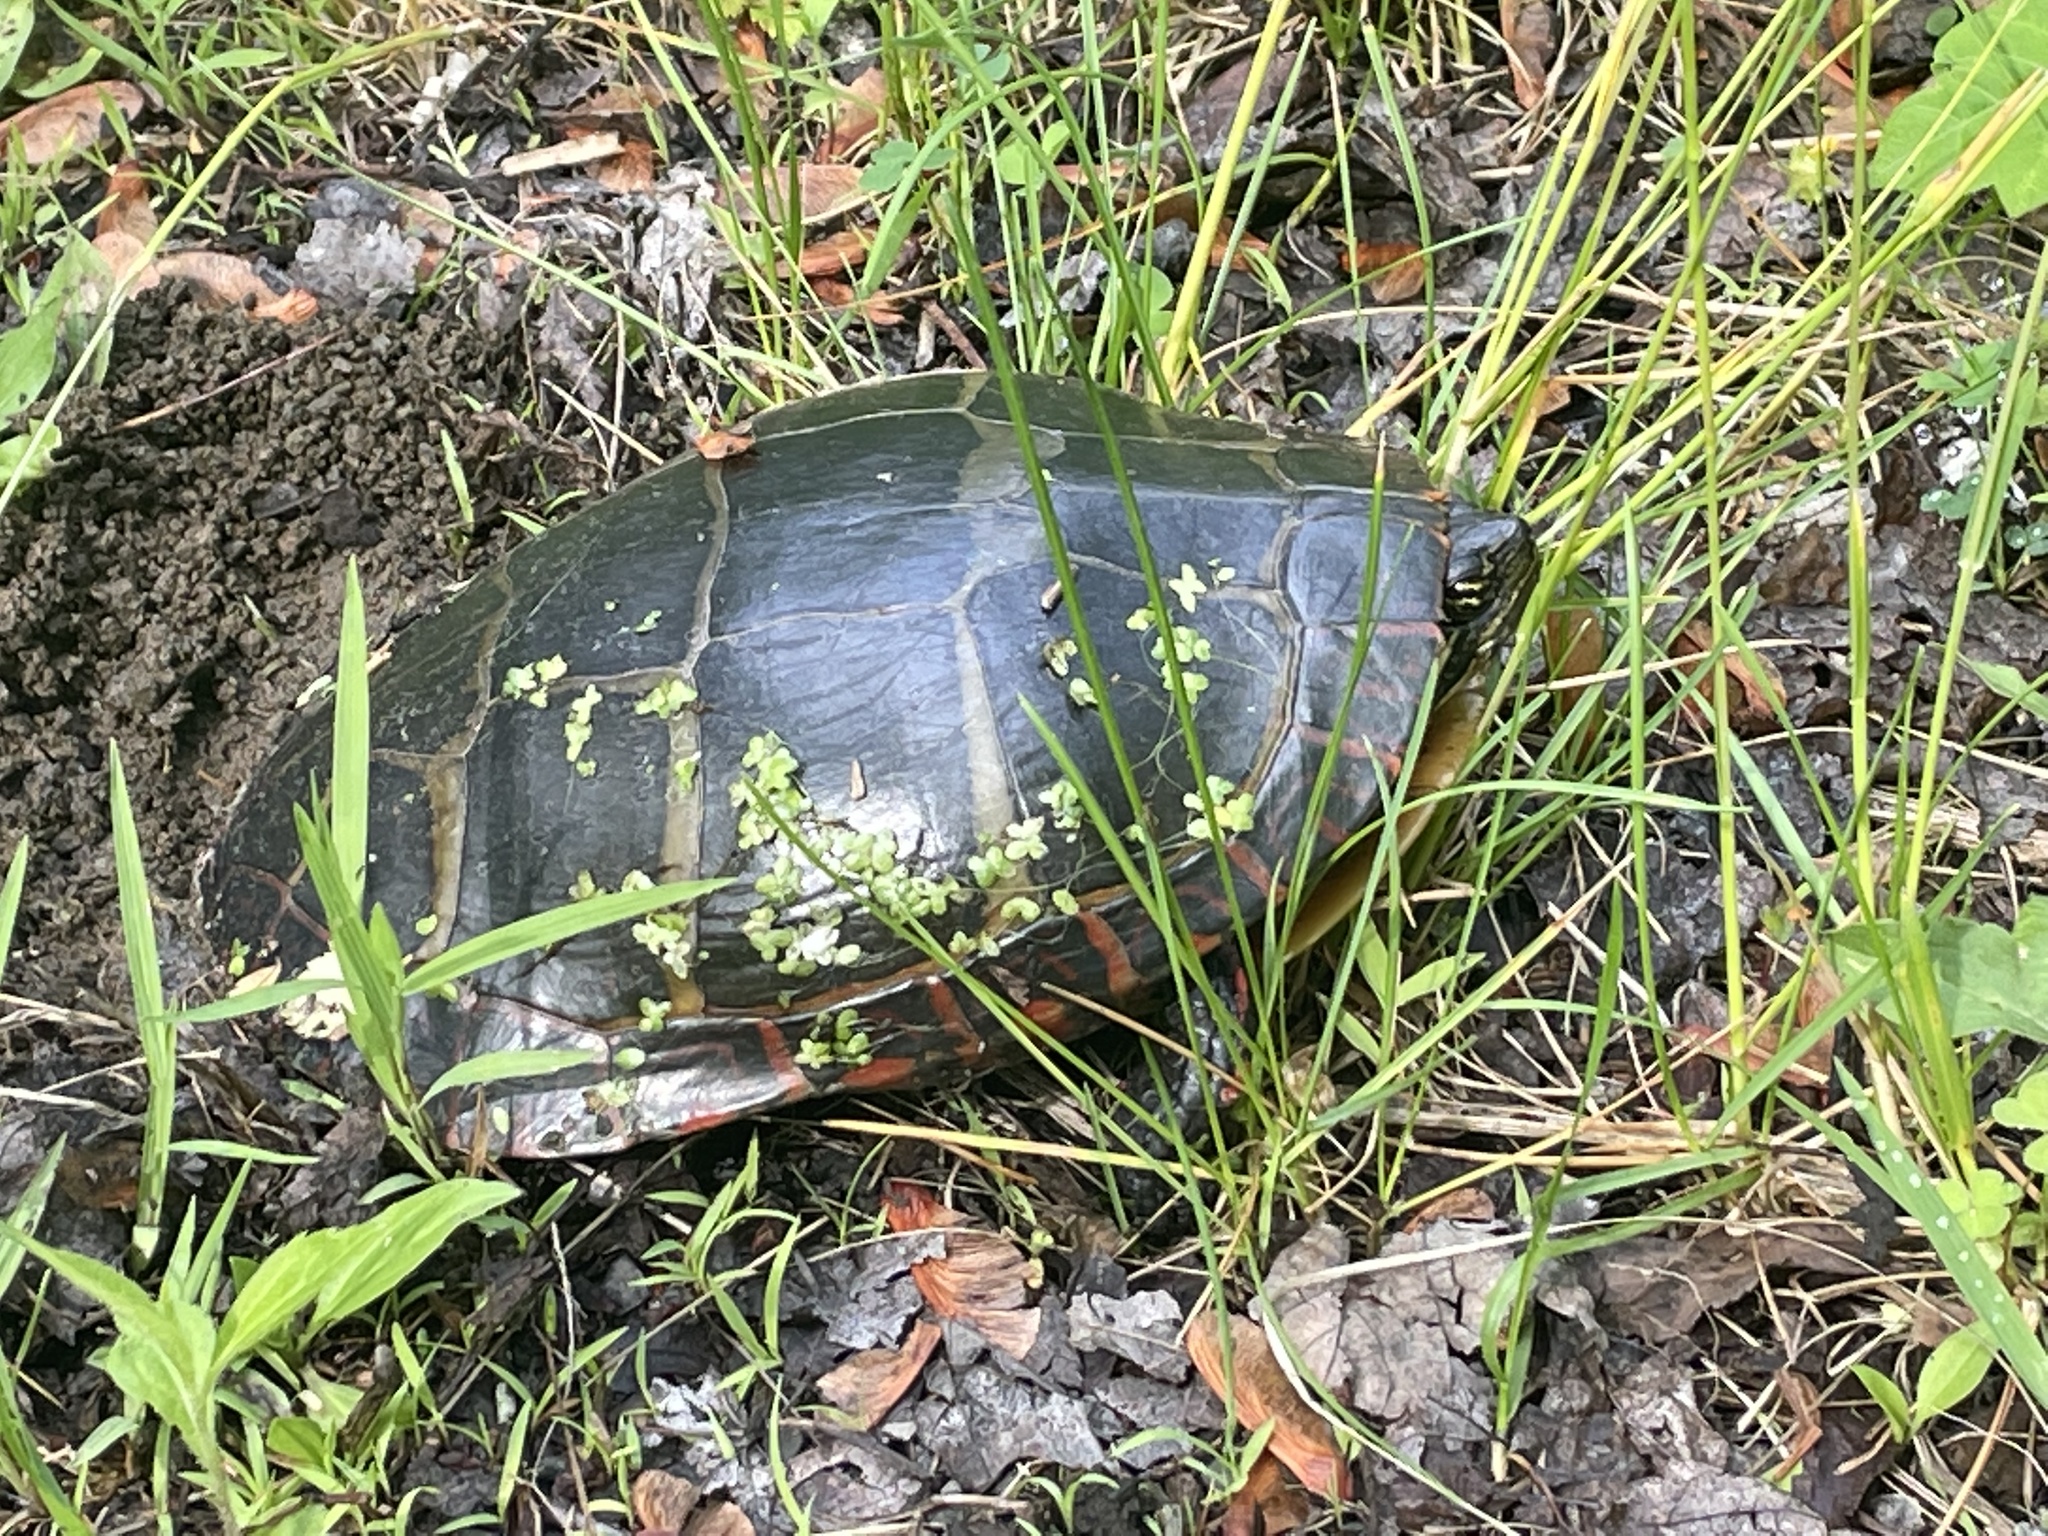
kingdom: Animalia
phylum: Chordata
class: Testudines
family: Emydidae
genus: Chrysemys
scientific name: Chrysemys picta
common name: Painted turtle
